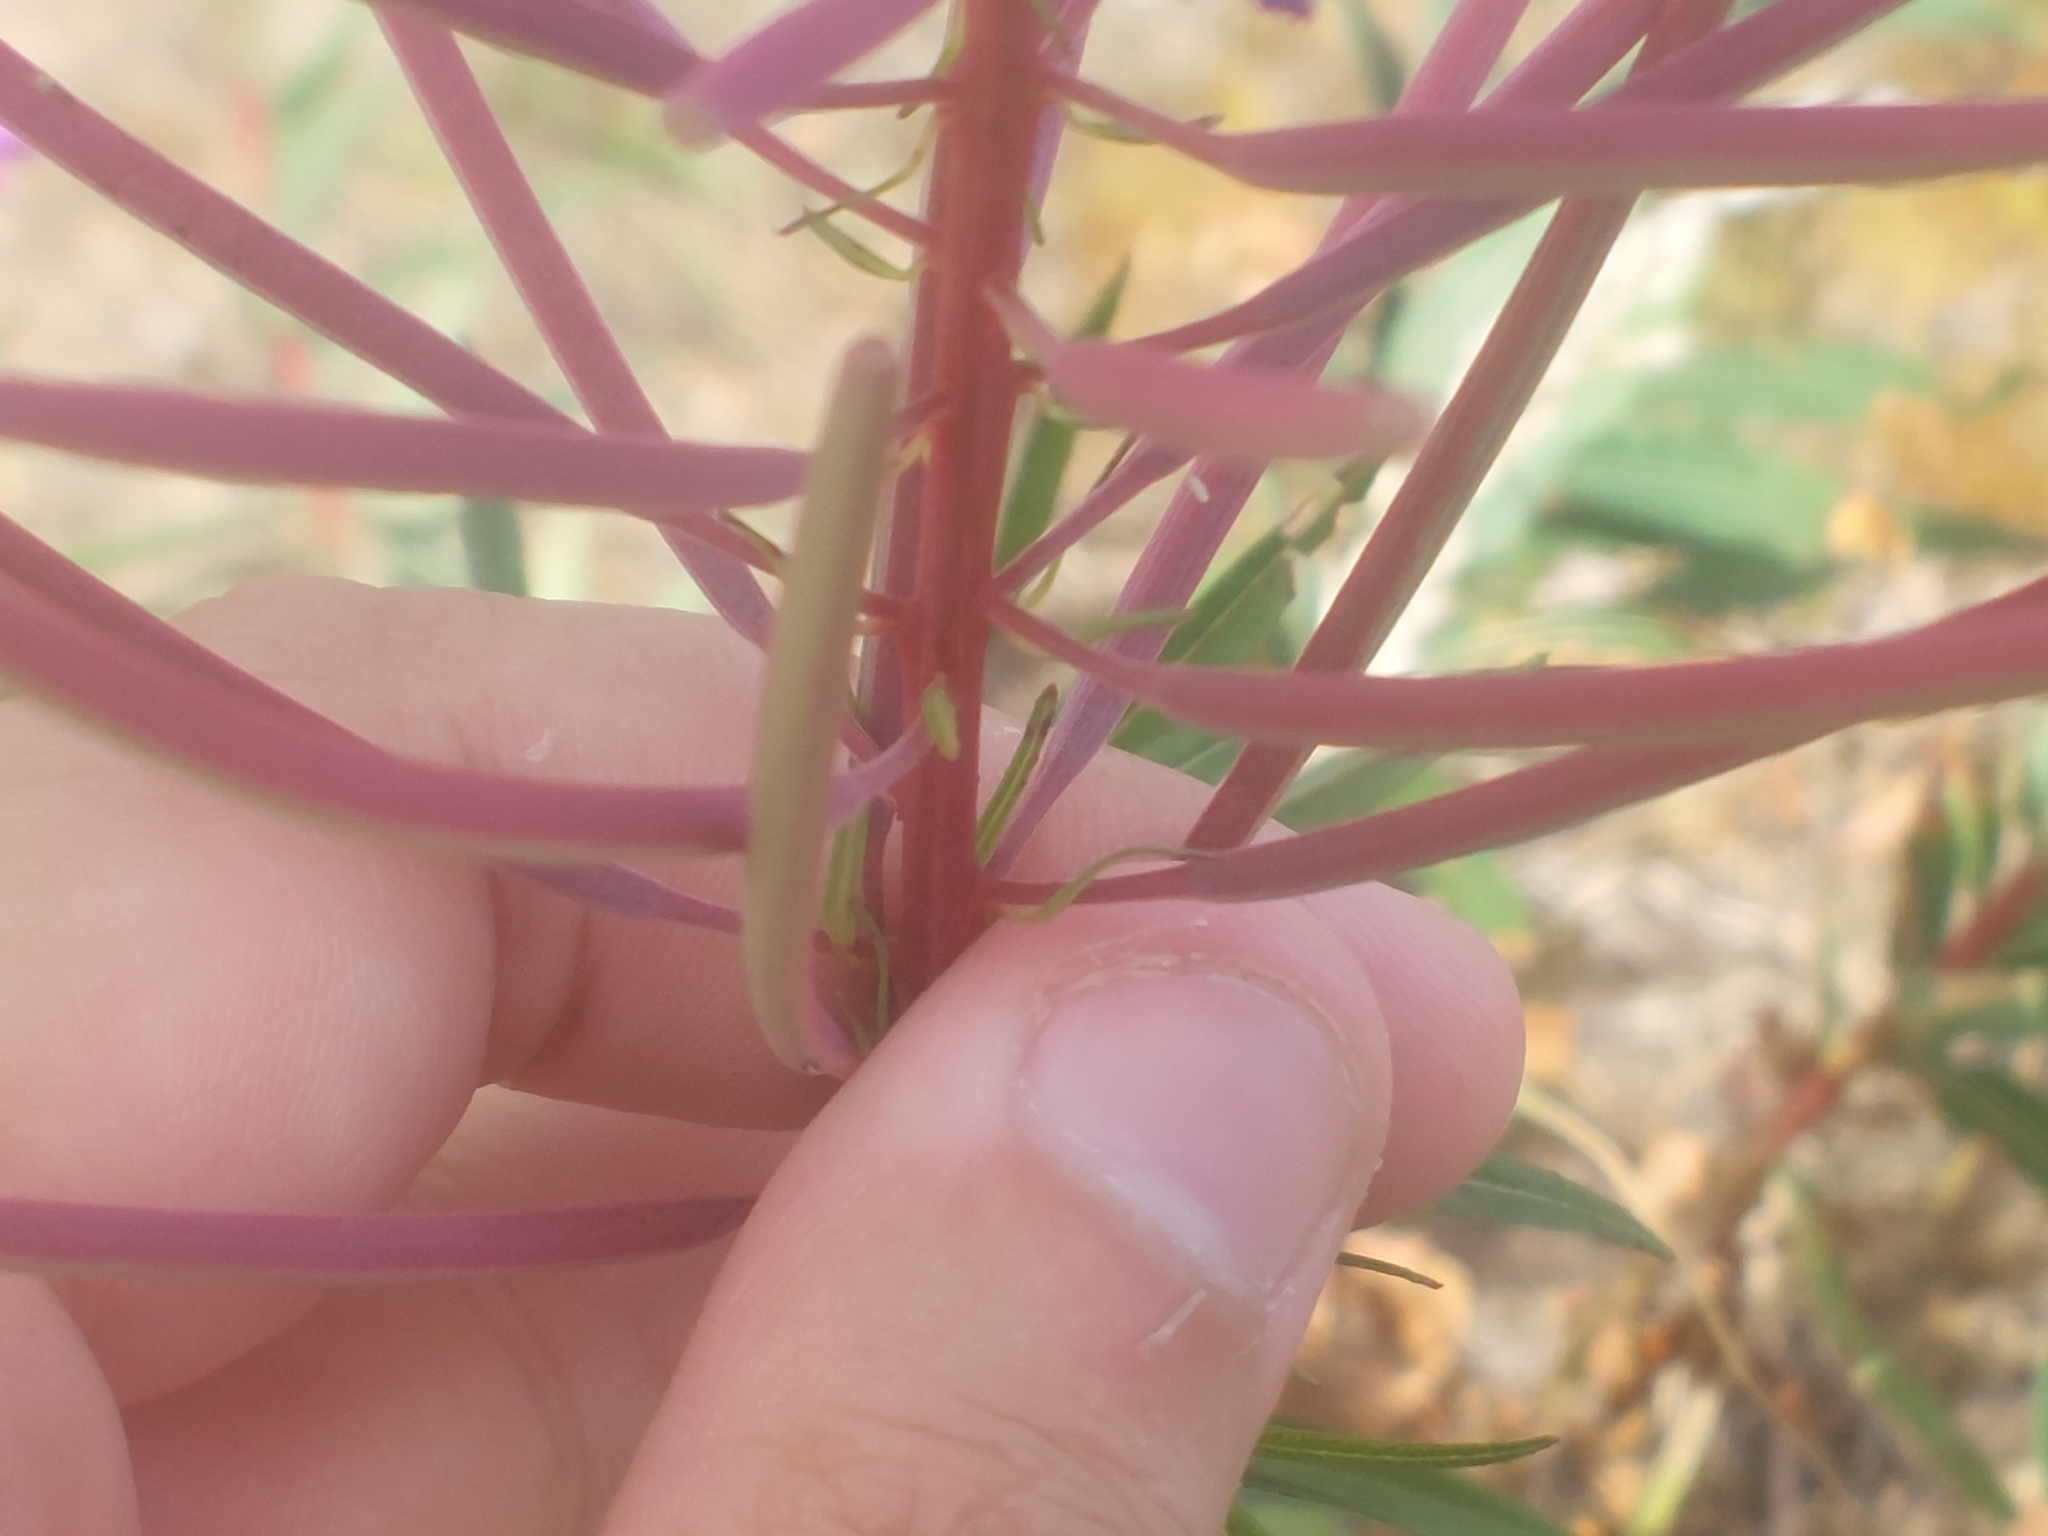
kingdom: Plantae
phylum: Tracheophyta
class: Magnoliopsida
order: Myrtales
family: Onagraceae
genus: Chamaenerion
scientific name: Chamaenerion angustifolium
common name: Fireweed
